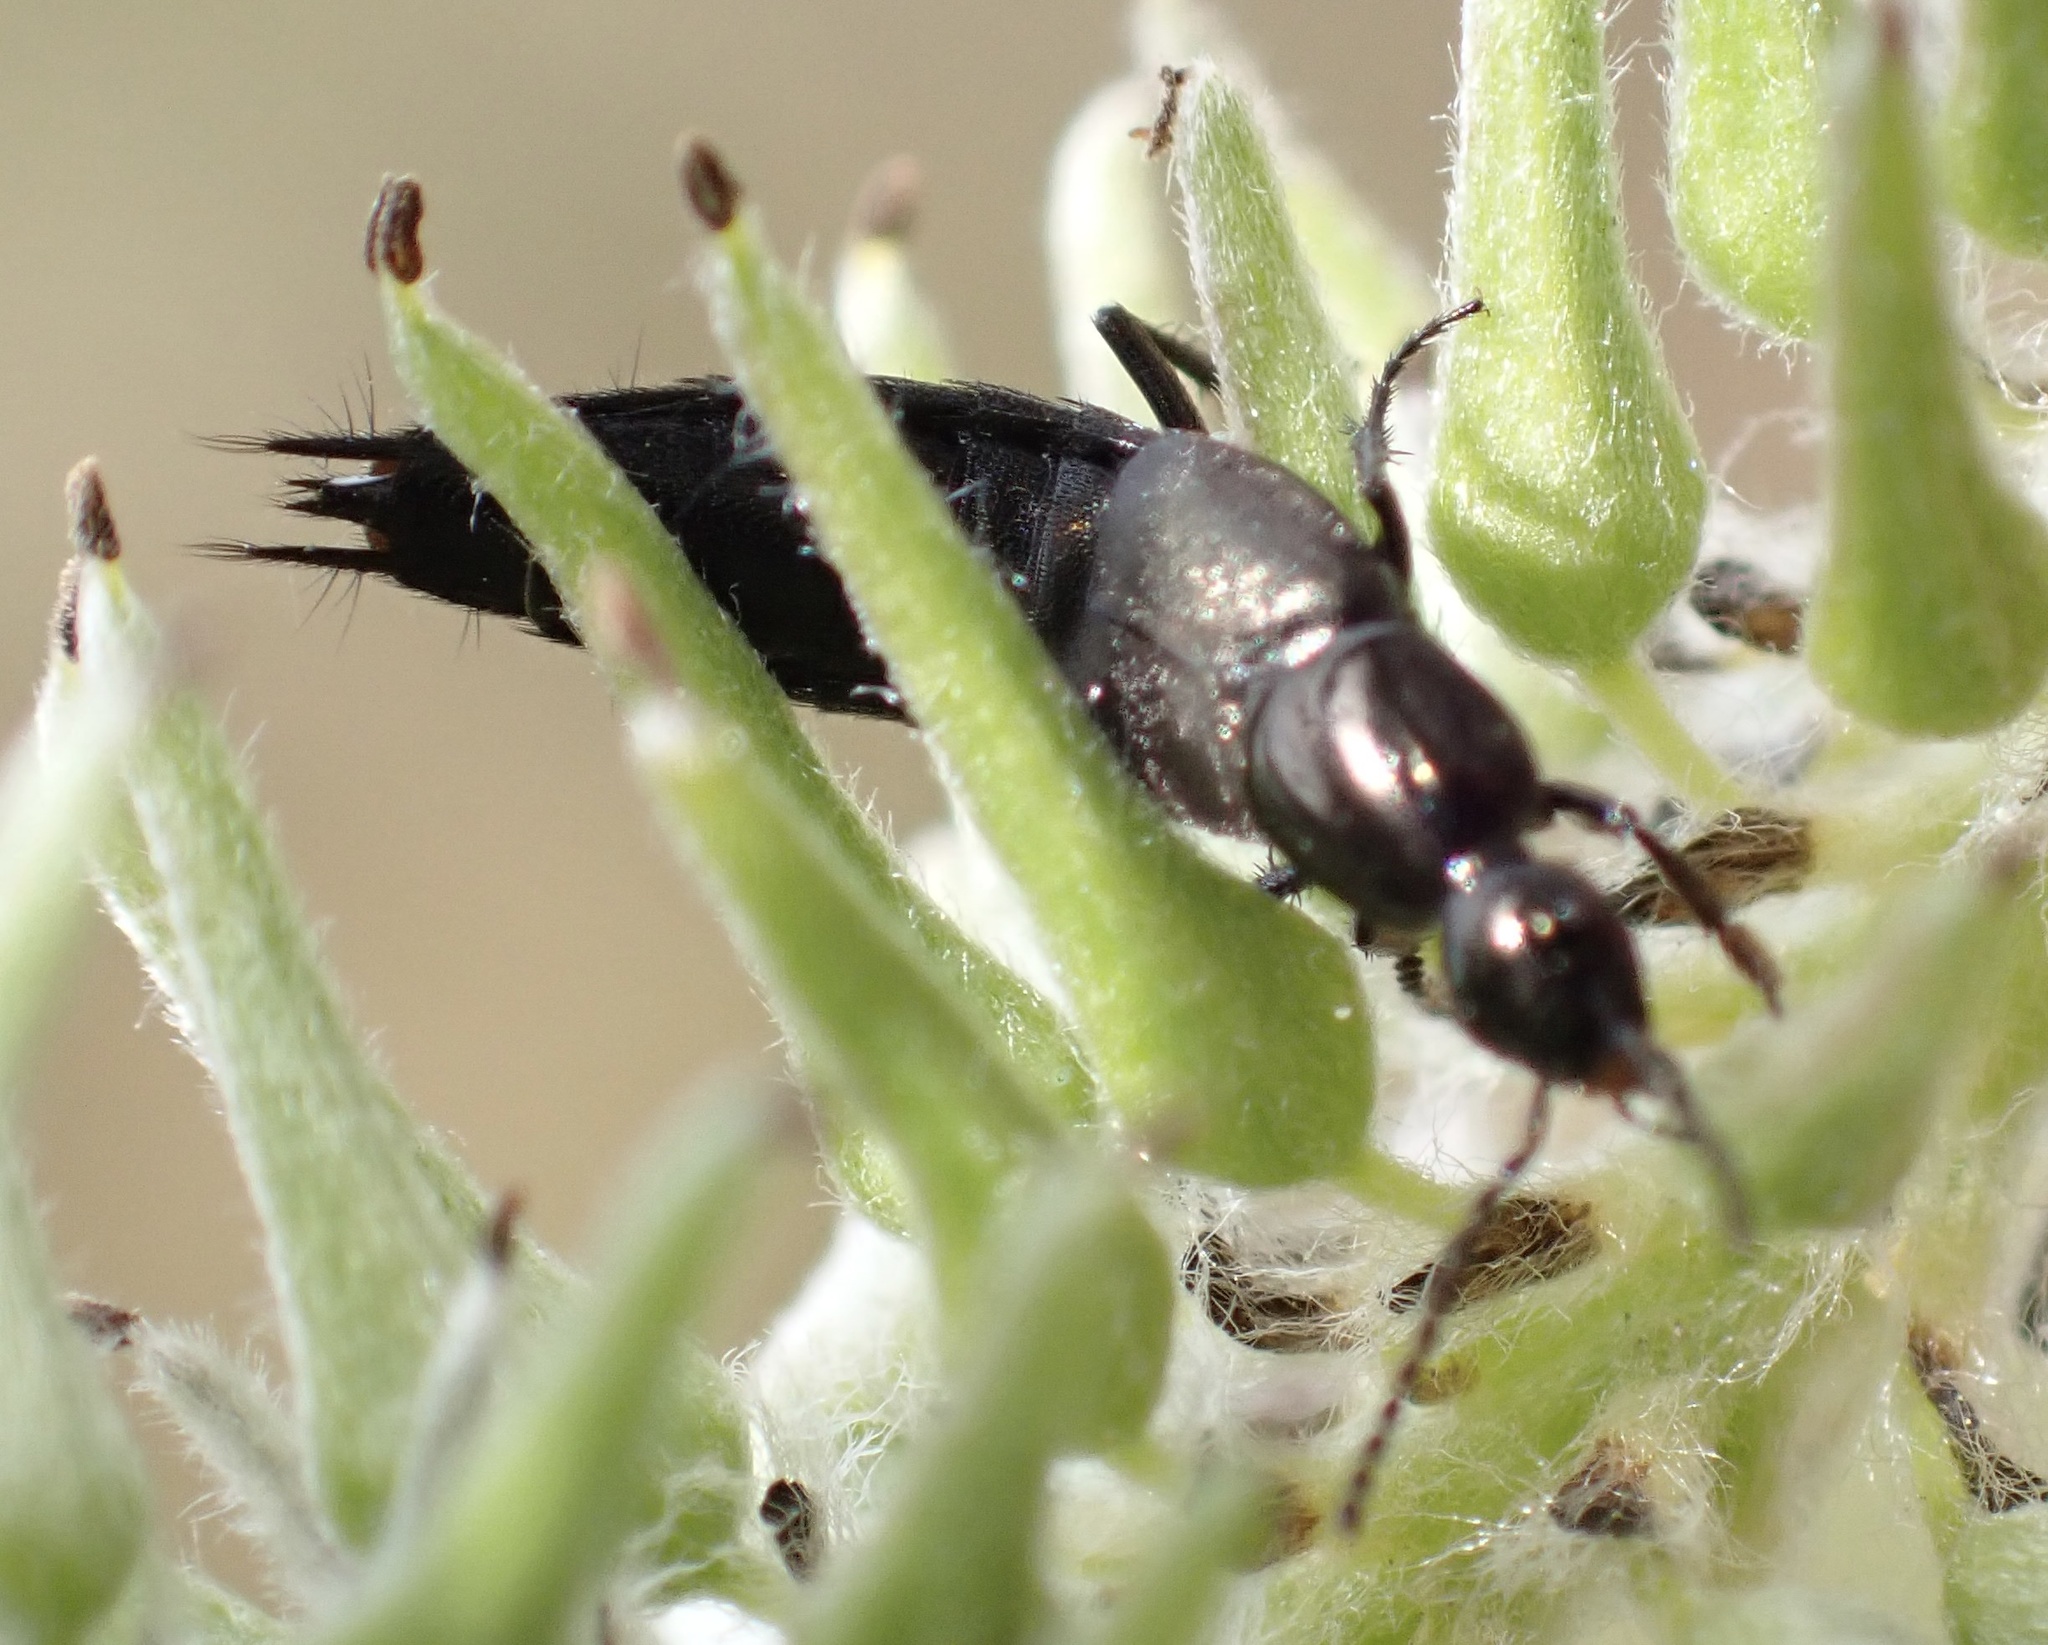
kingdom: Animalia
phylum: Arthropoda
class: Insecta
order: Coleoptera
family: Staphylinidae
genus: Philonthus
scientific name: Philonthus cognatus
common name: Staph beetle
